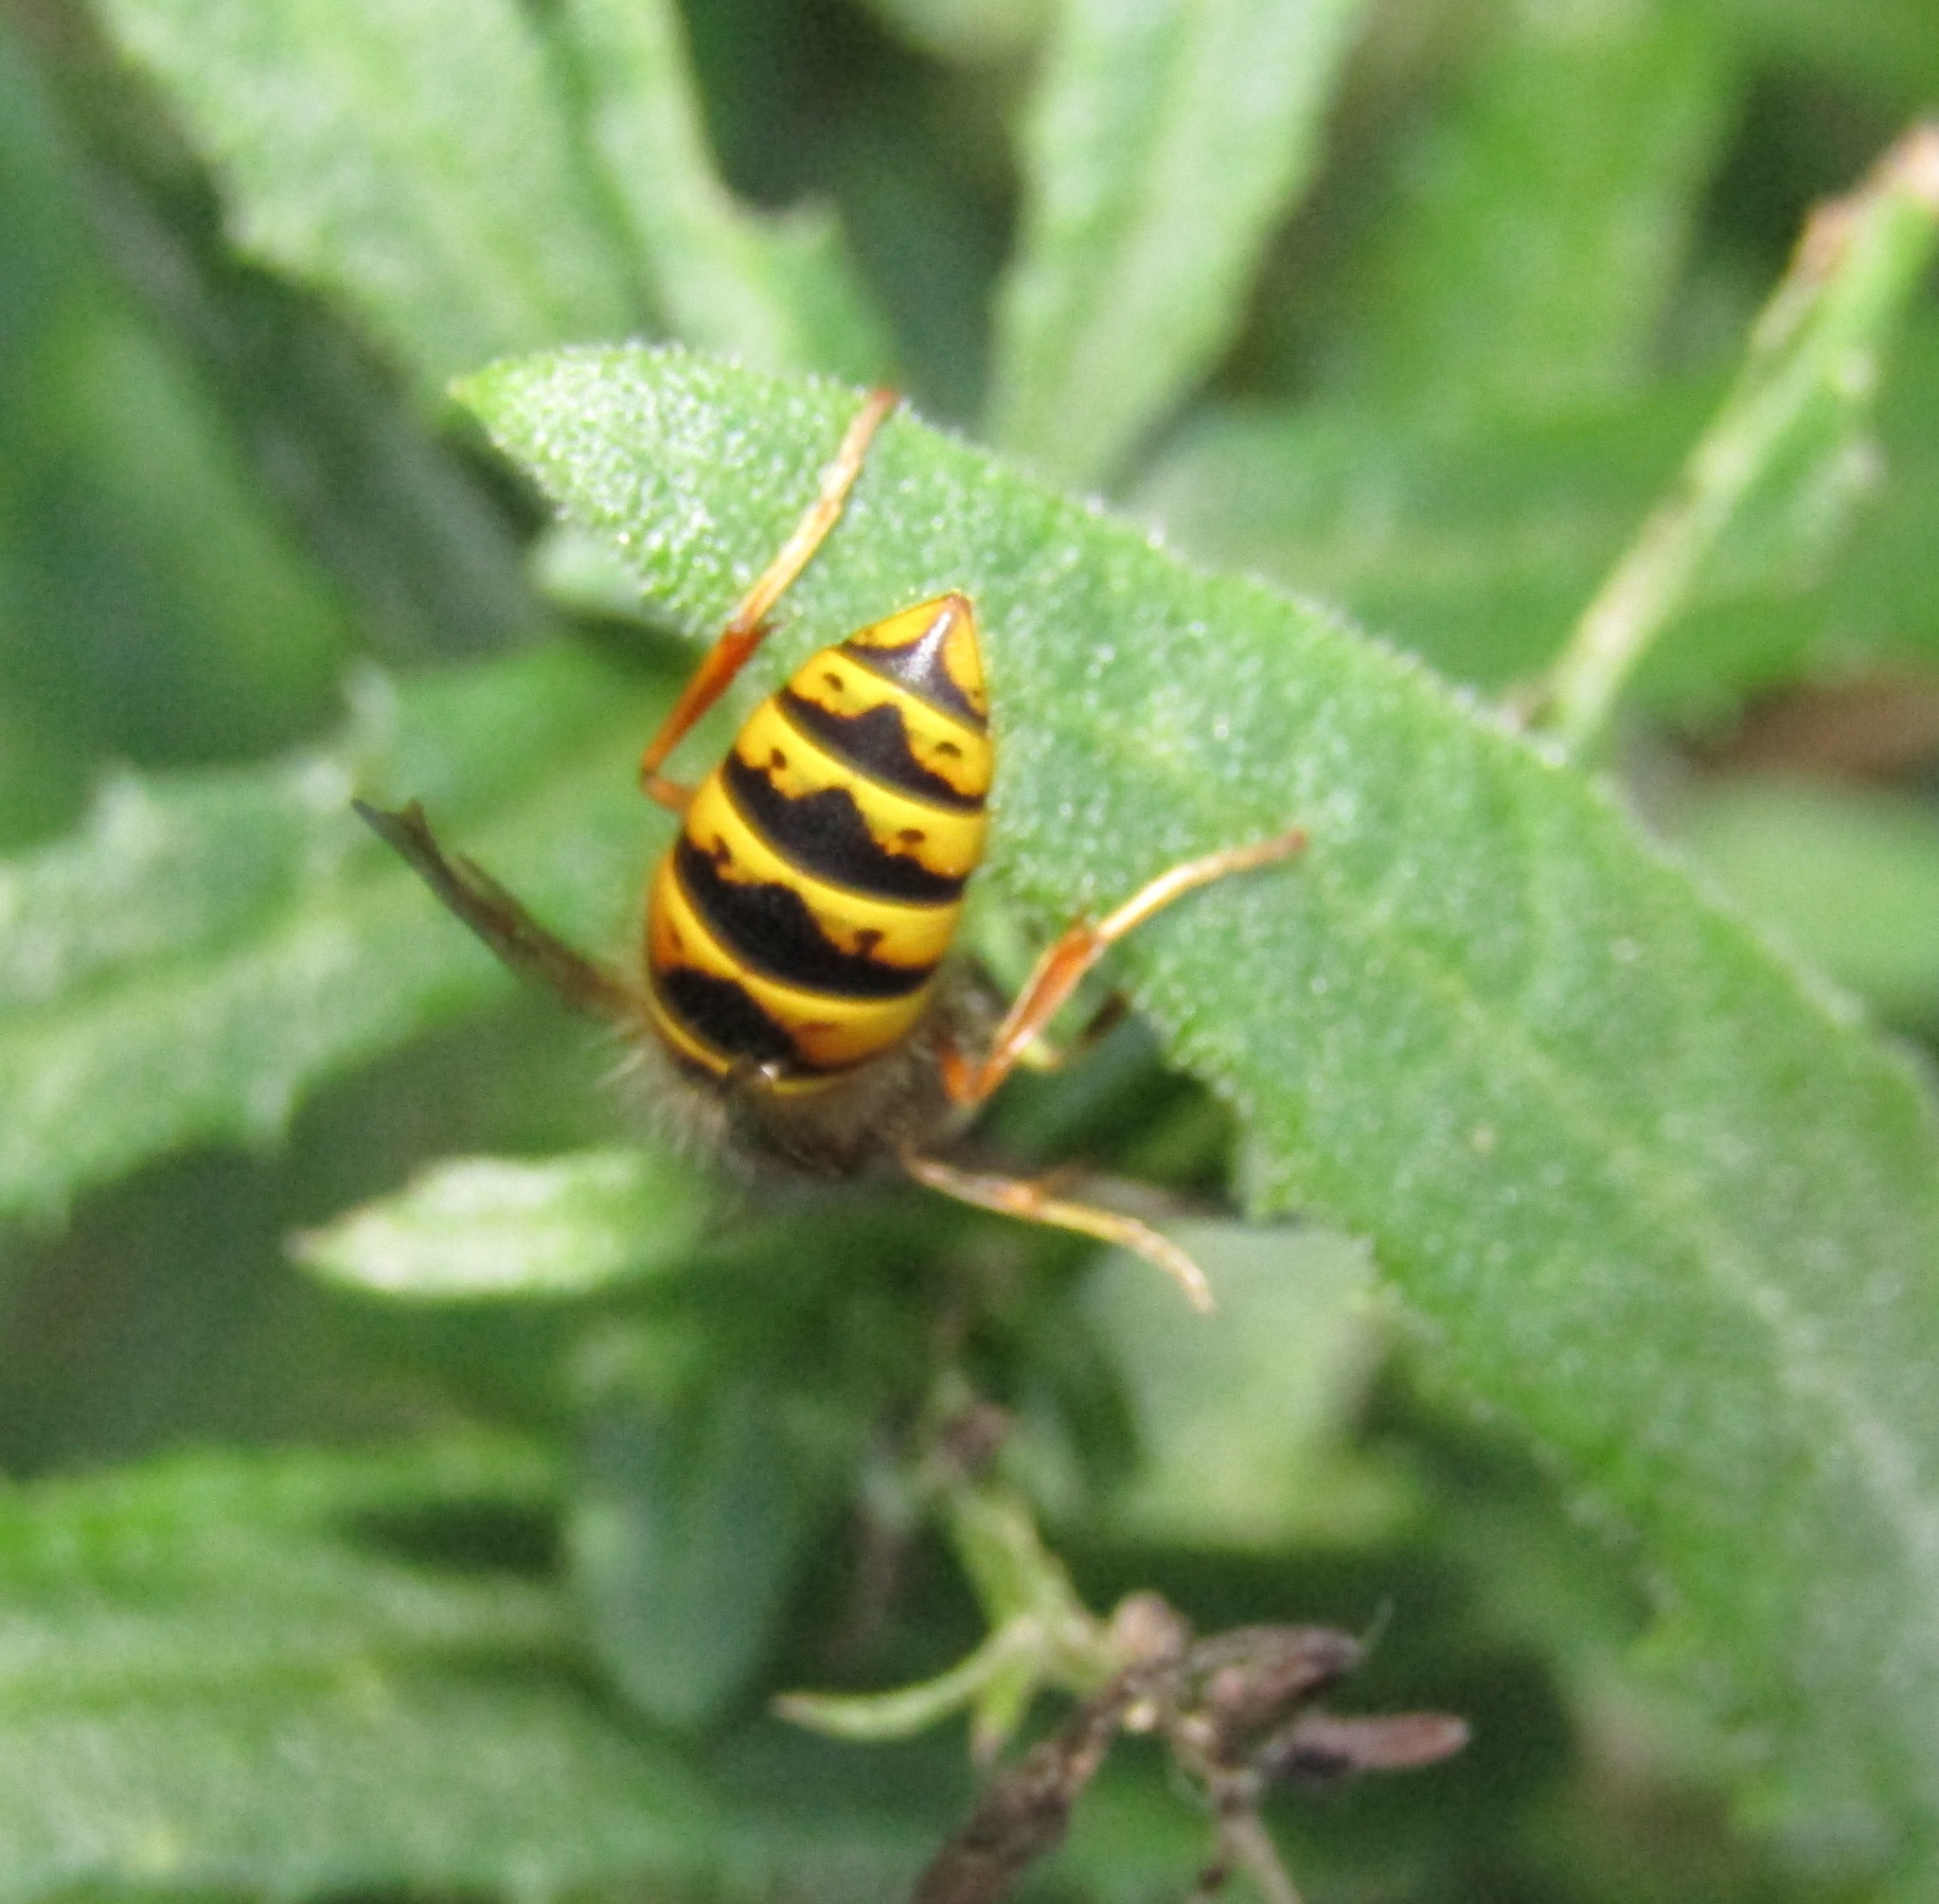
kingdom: Animalia
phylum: Arthropoda
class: Insecta
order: Hymenoptera
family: Vespidae
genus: Vespula
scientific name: Vespula vulgaris
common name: Common wasp
